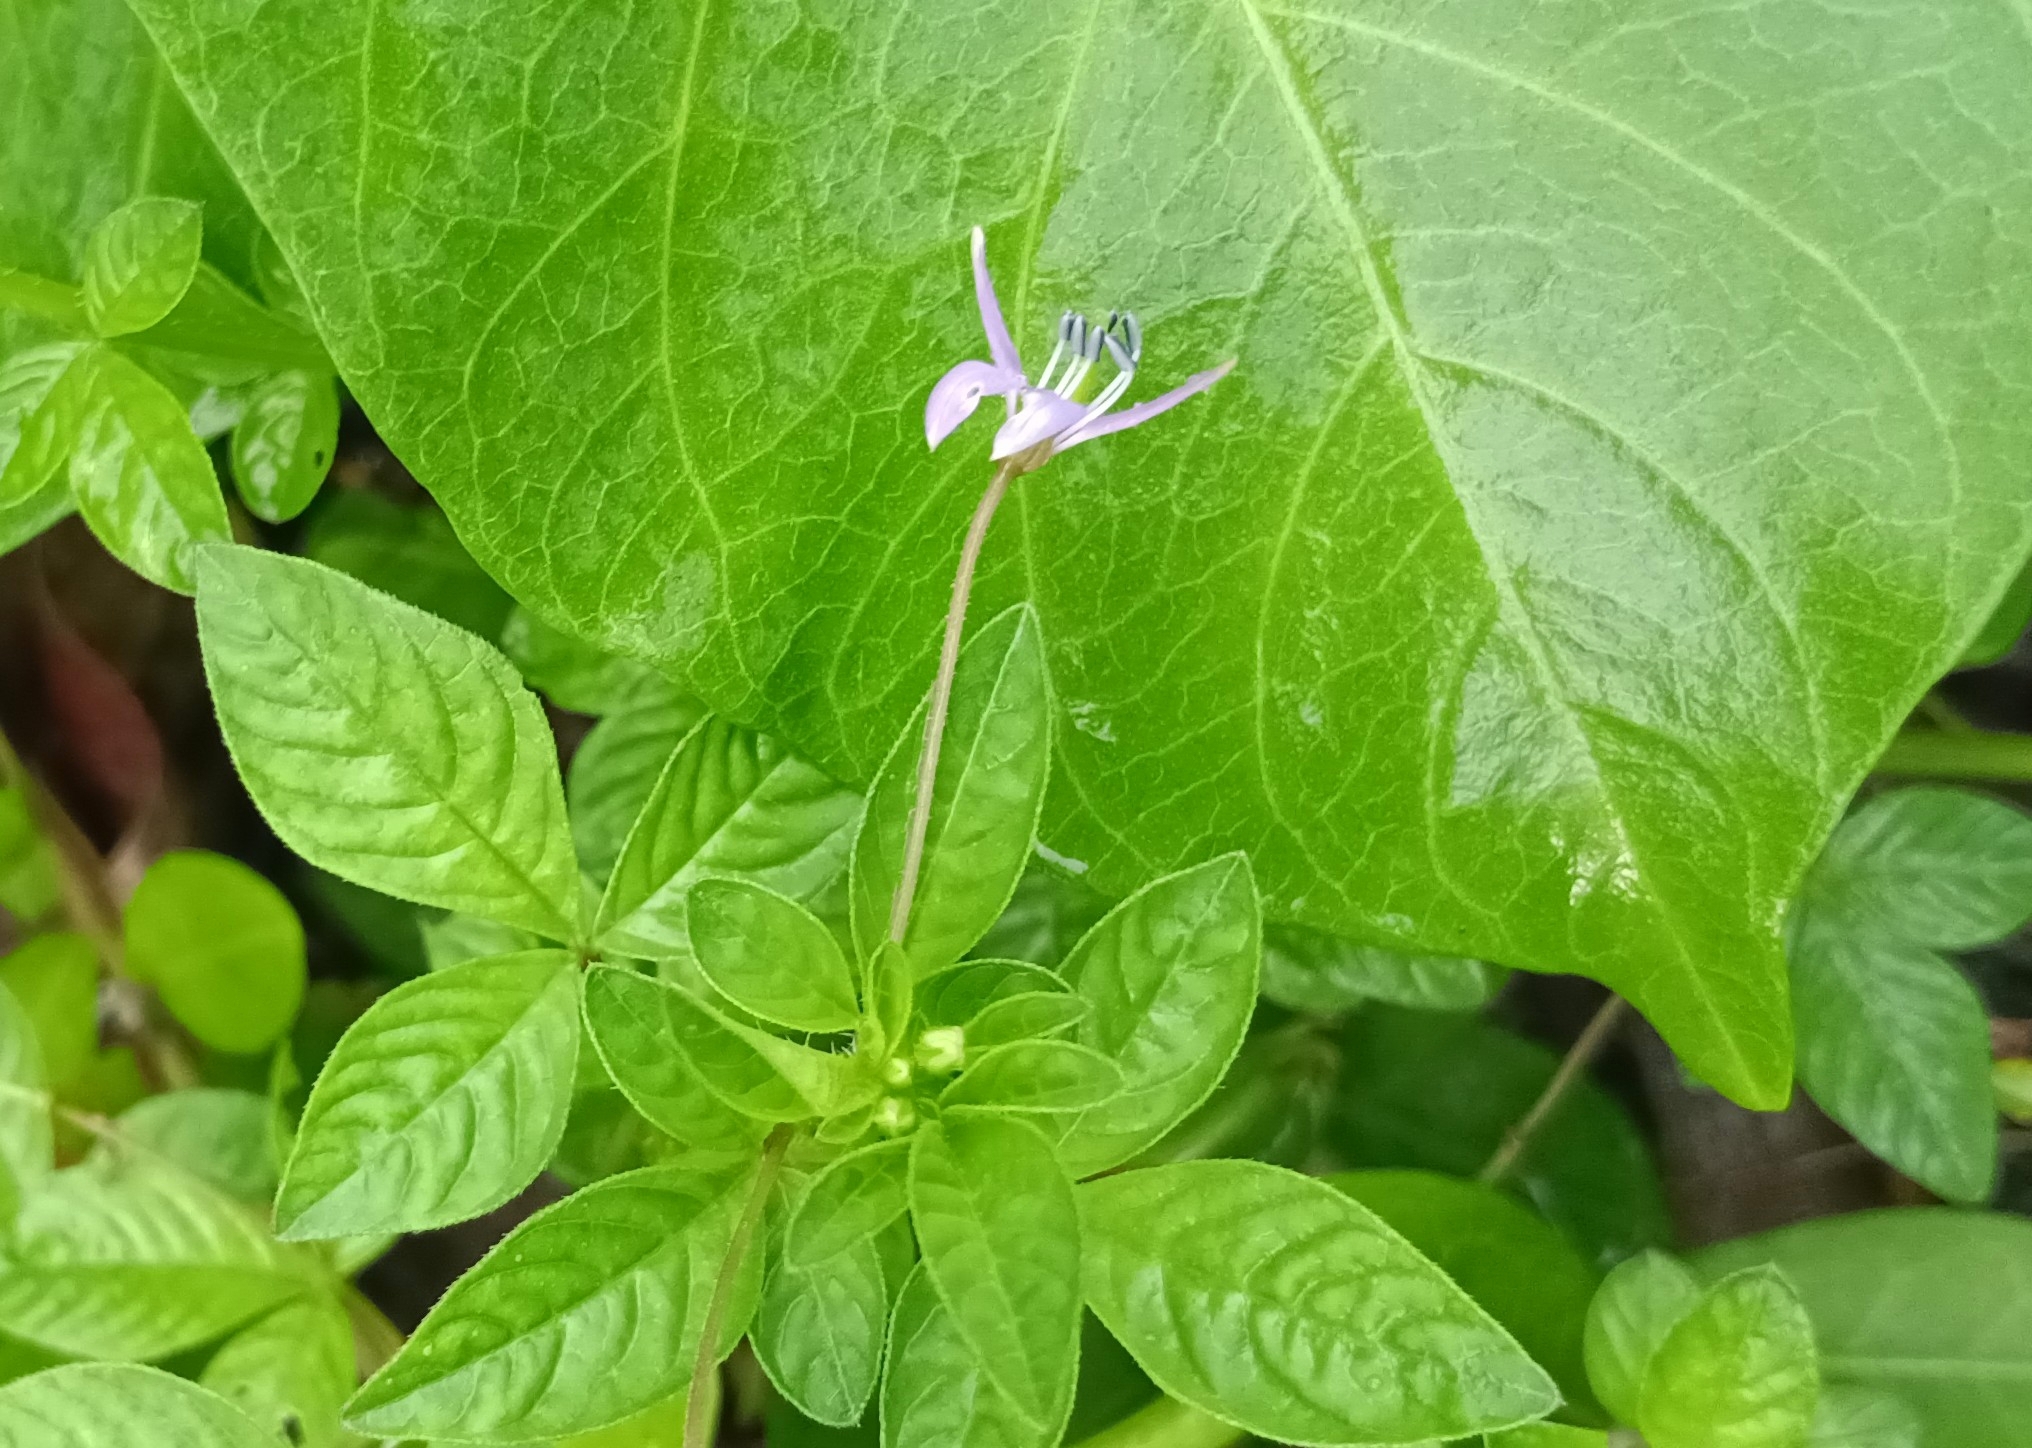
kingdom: Plantae
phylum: Tracheophyta
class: Magnoliopsida
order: Brassicales
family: Cleomaceae
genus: Sieruela
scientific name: Sieruela rutidosperma
